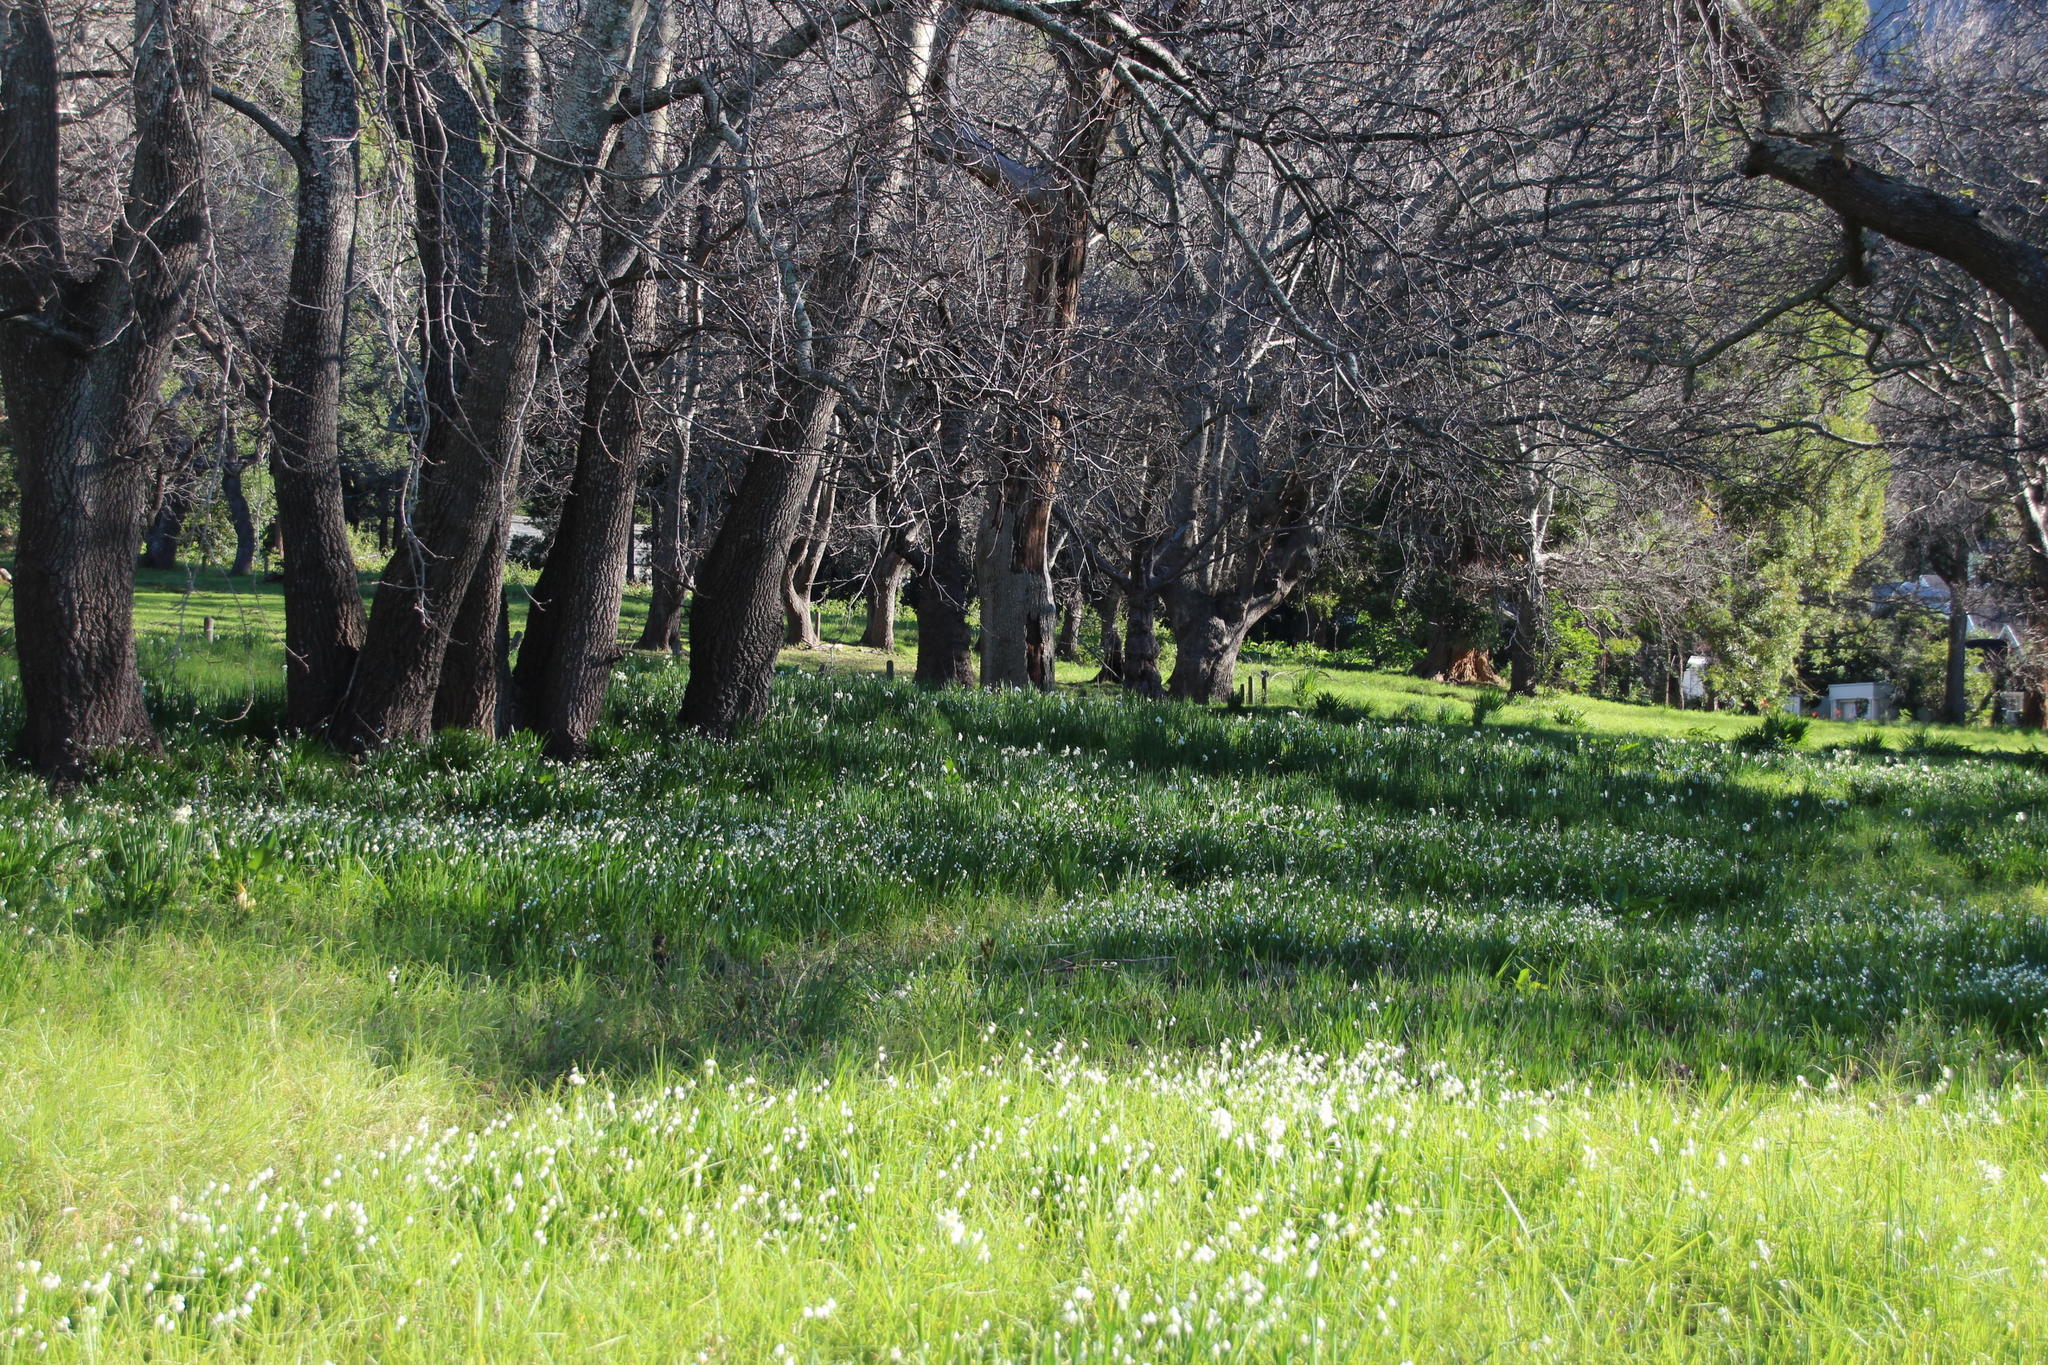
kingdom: Plantae
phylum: Tracheophyta
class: Liliopsida
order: Asparagales
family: Amaryllidaceae
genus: Leucojum
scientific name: Leucojum aestivum
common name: Summer snowflake
